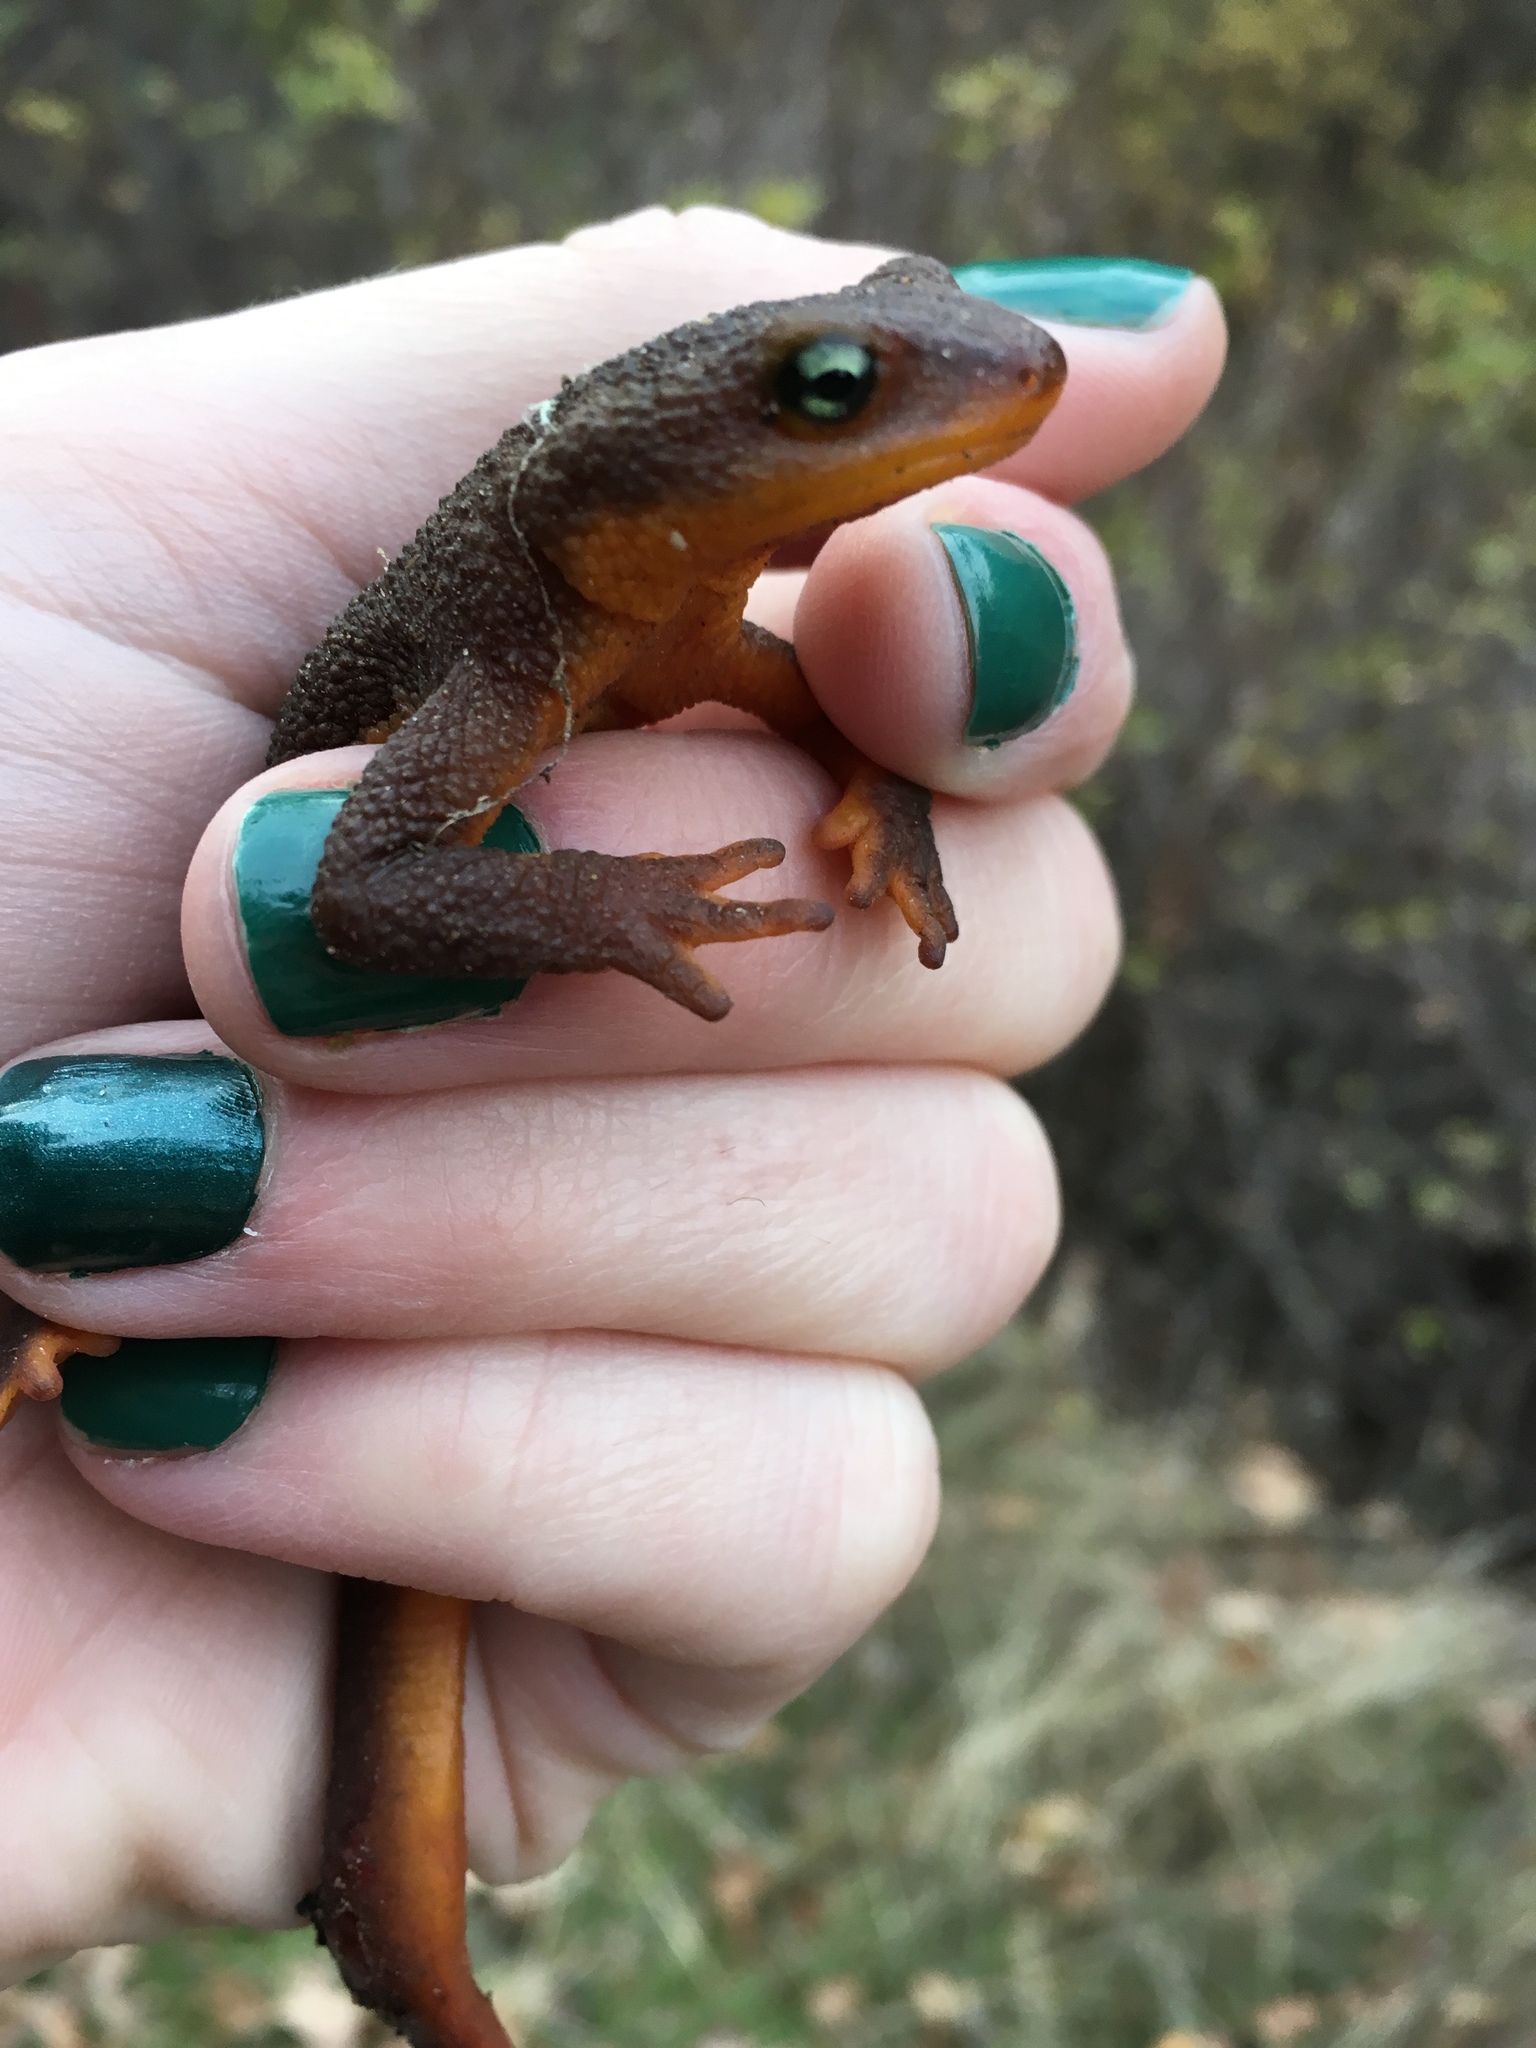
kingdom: Animalia
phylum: Chordata
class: Amphibia
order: Caudata
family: Salamandridae
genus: Taricha
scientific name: Taricha torosa
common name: California newt
